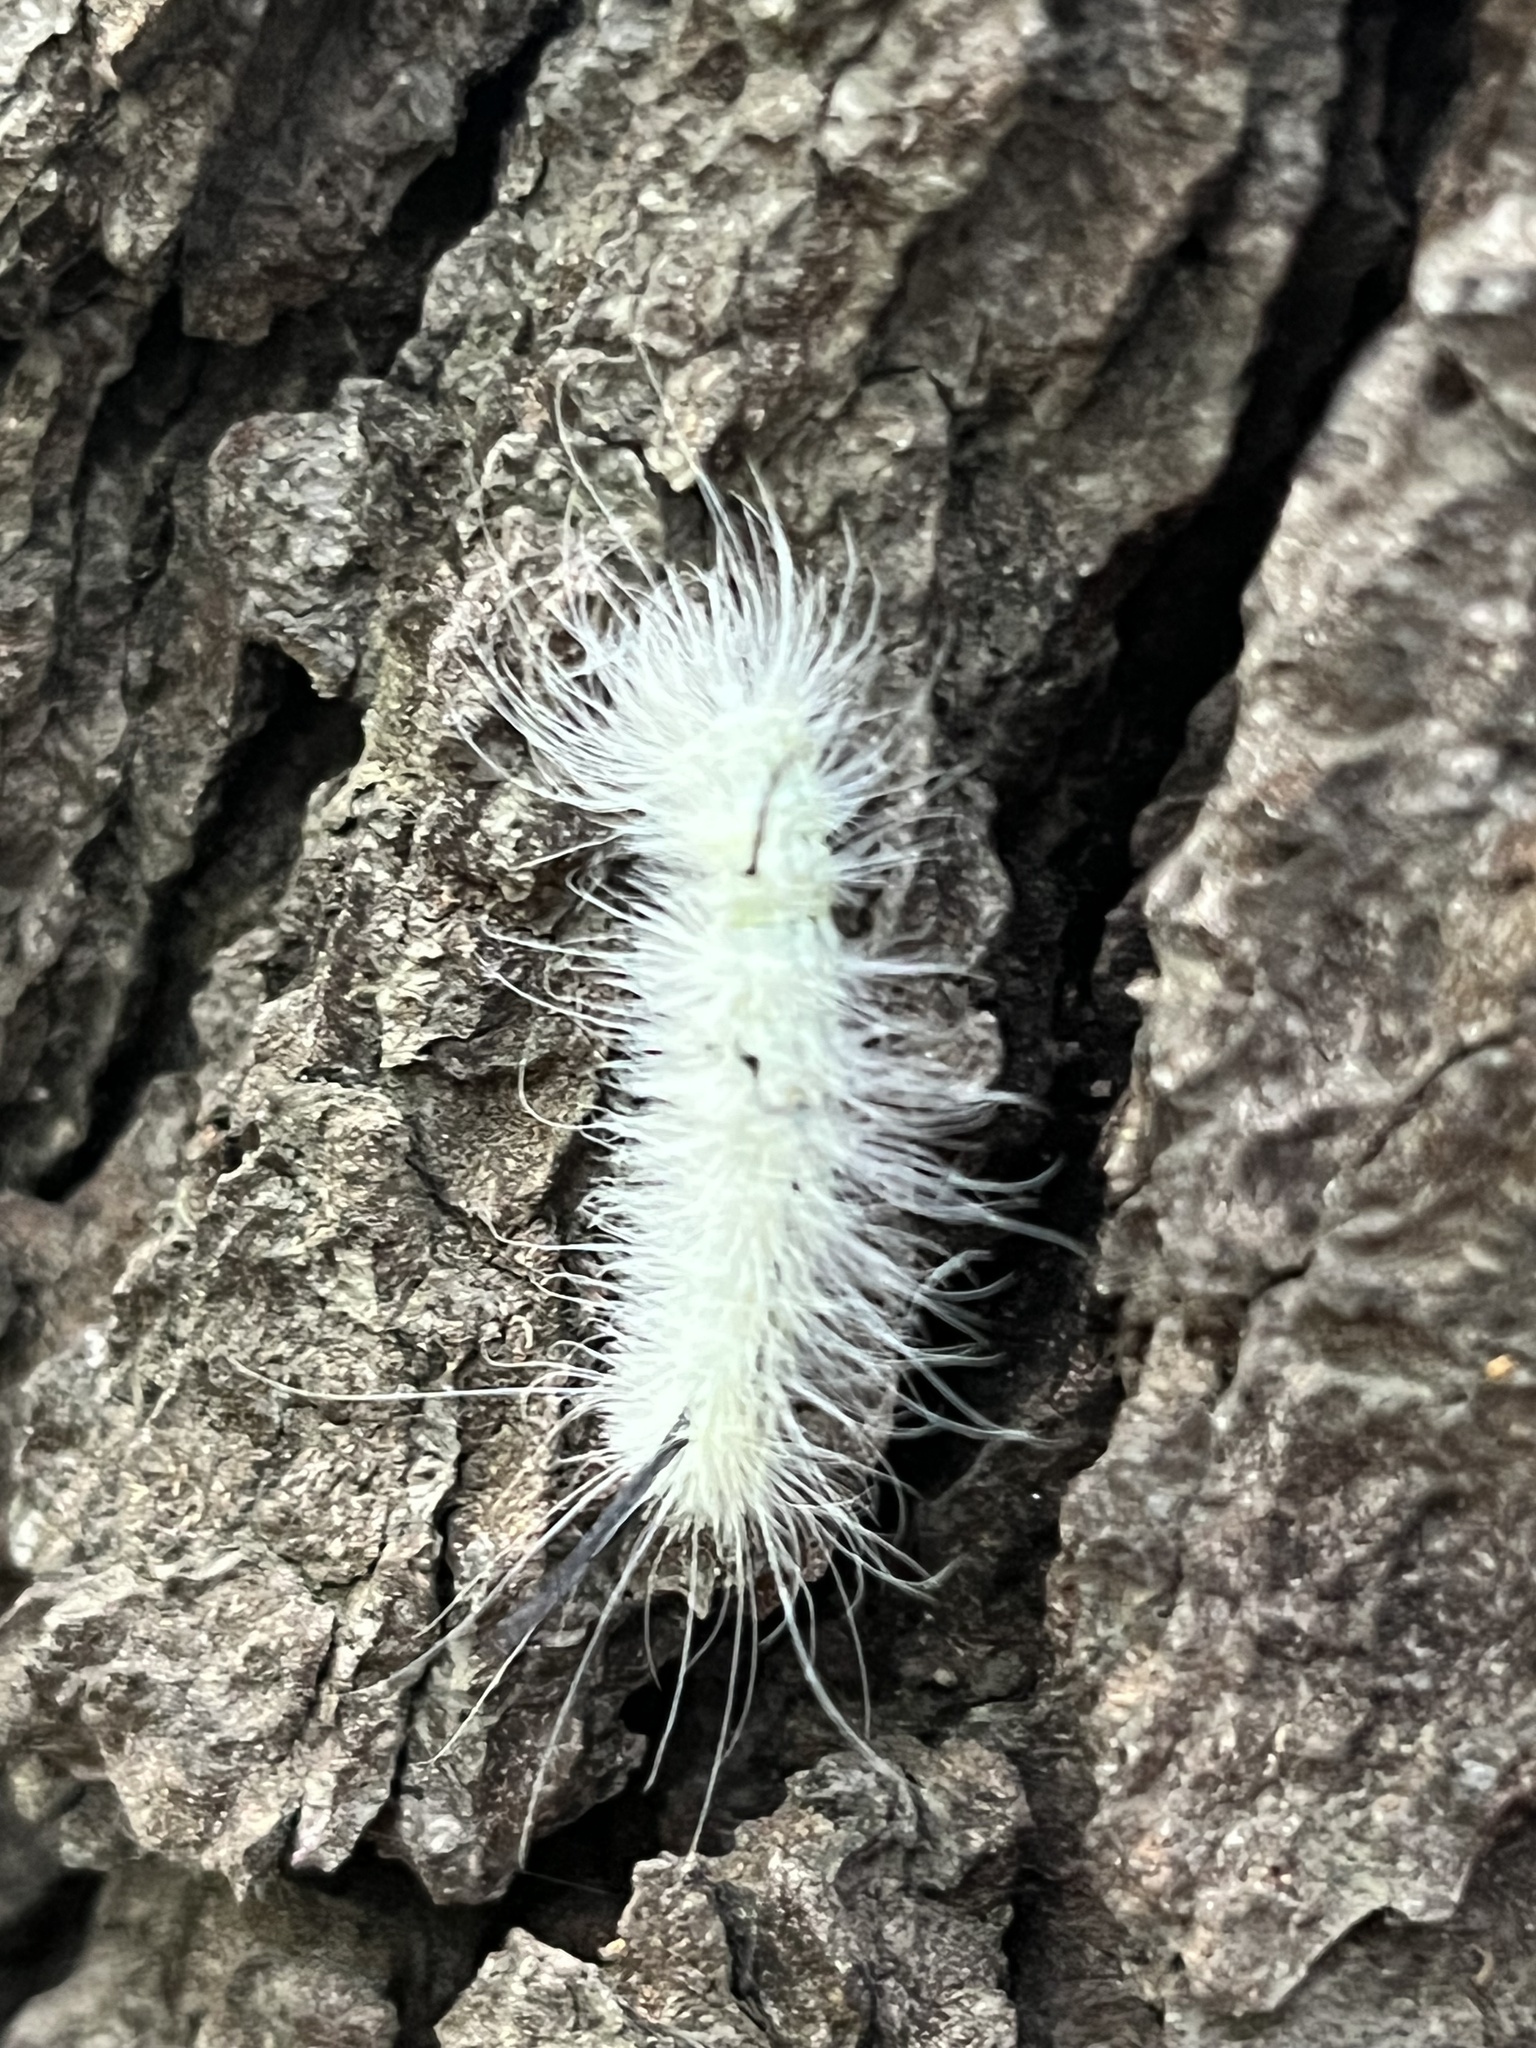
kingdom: Animalia
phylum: Arthropoda
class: Insecta
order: Lepidoptera
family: Noctuidae
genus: Acronicta
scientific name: Acronicta americana
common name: American dagger
